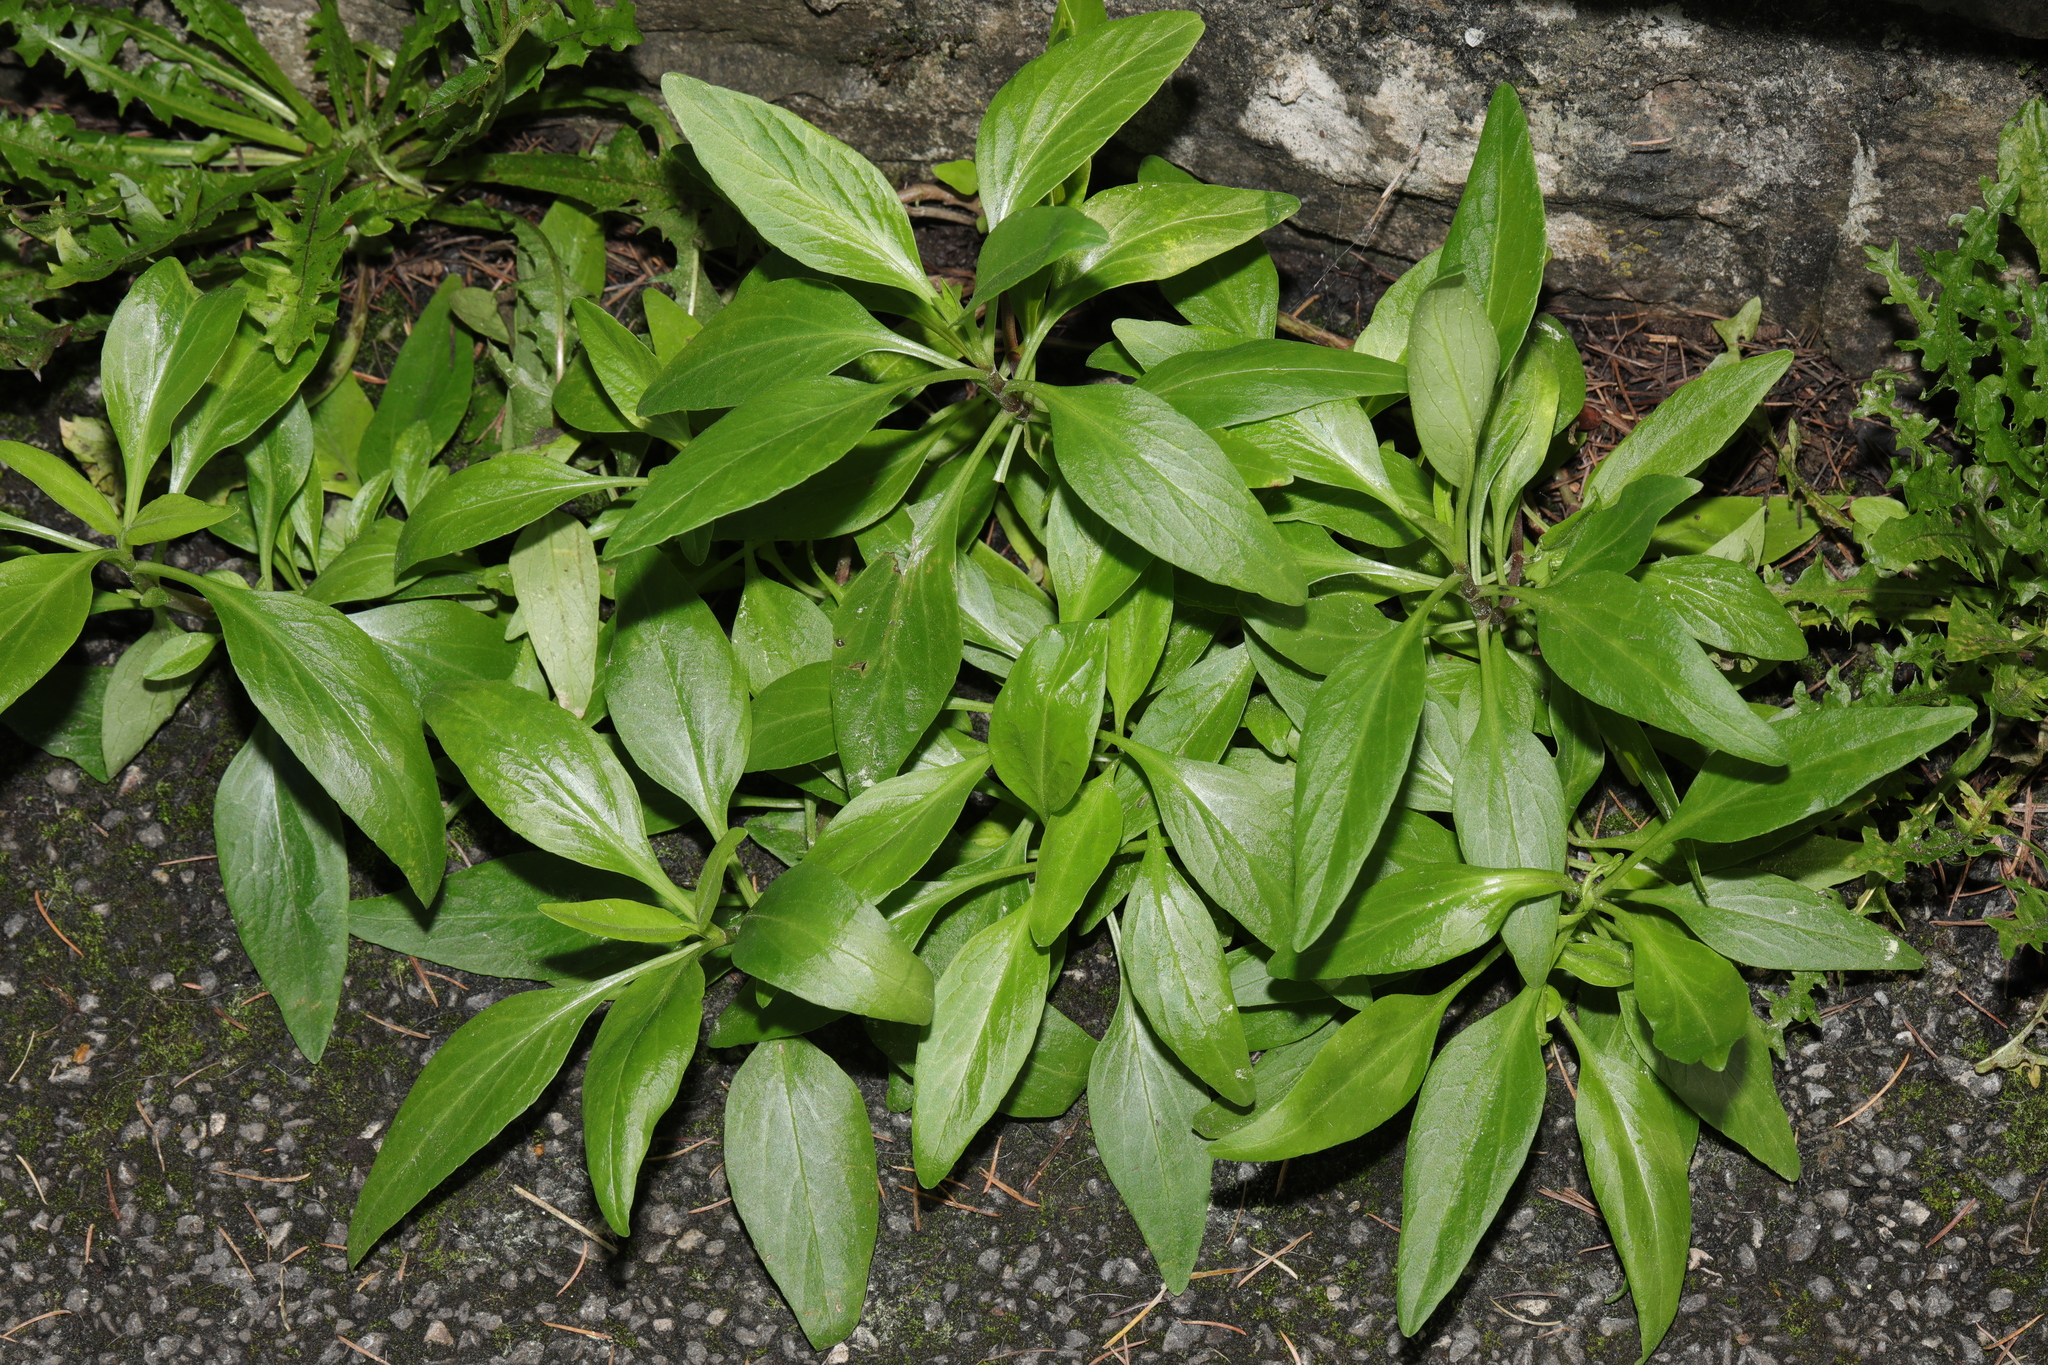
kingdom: Plantae
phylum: Tracheophyta
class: Magnoliopsida
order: Dipsacales
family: Caprifoliaceae
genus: Centranthus
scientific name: Centranthus ruber
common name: Red valerian
